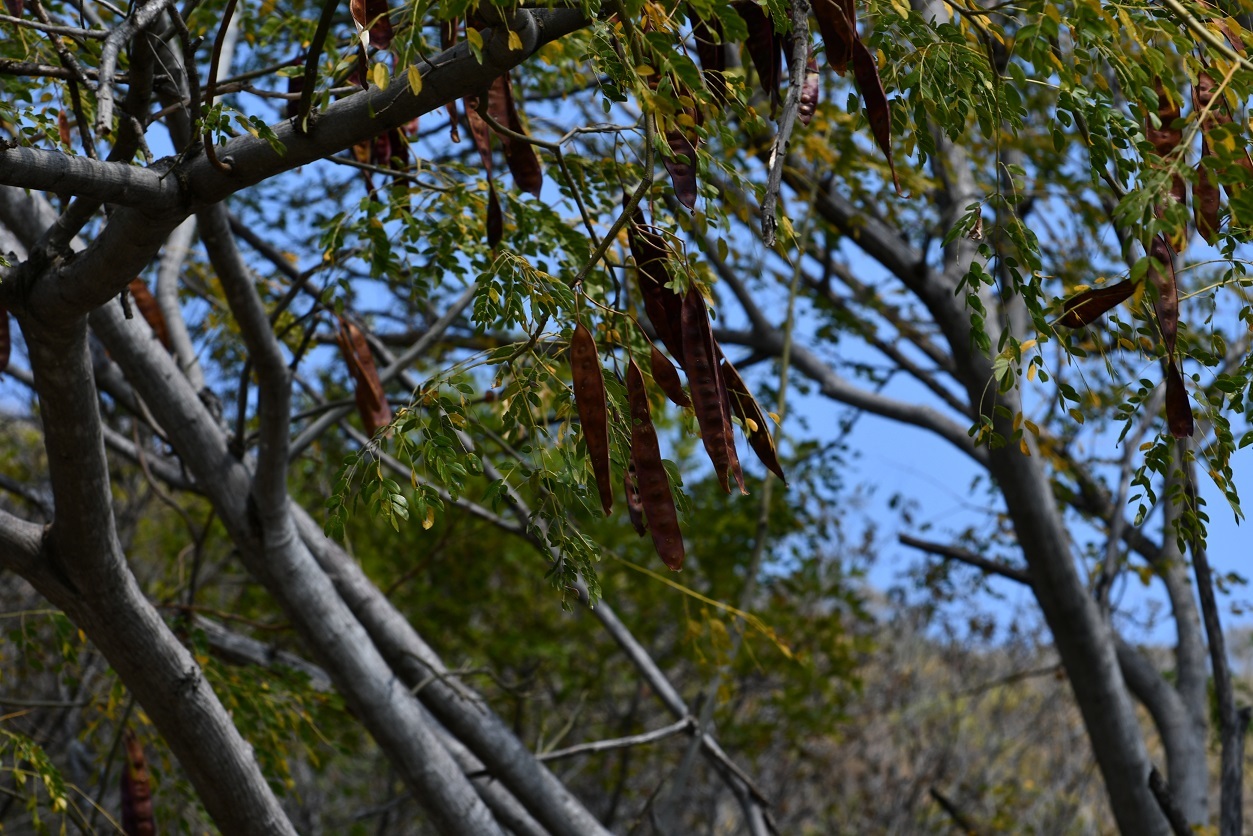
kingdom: Plantae
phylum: Tracheophyta
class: Magnoliopsida
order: Fabales
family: Fabaceae
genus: Coulteria
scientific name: Coulteria velutina
